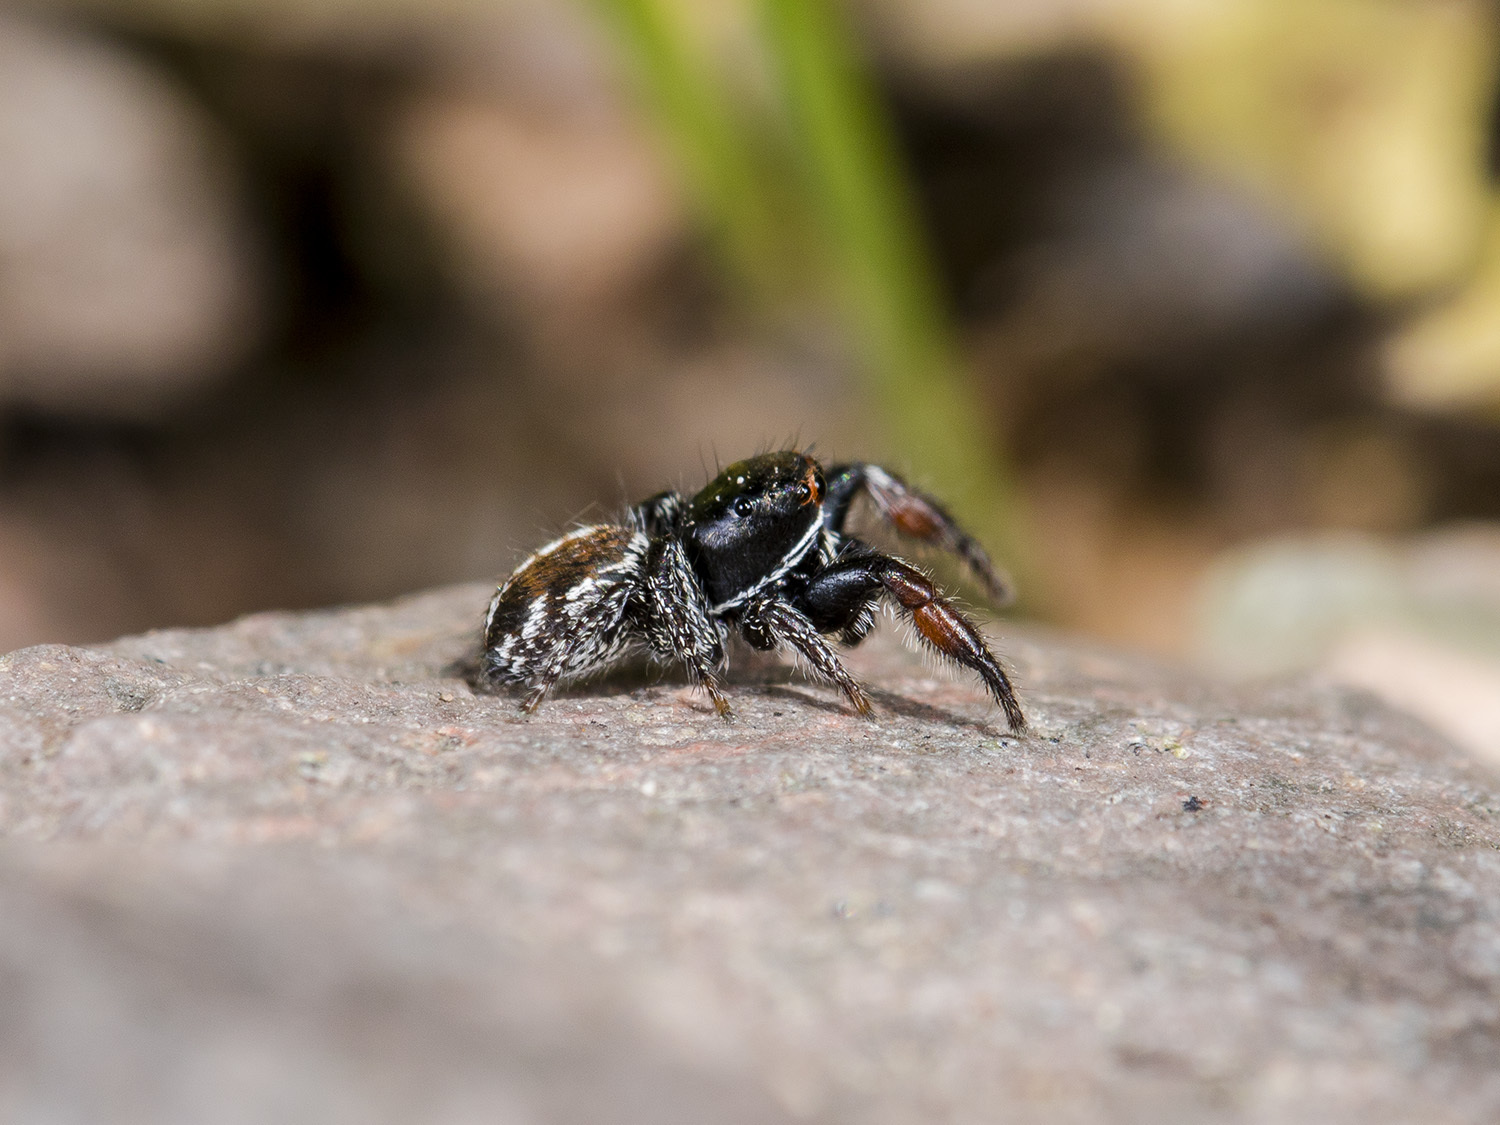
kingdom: Animalia
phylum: Arthropoda
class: Arachnida
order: Araneae
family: Salticidae
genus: Pellenes
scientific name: Pellenes allegrii
